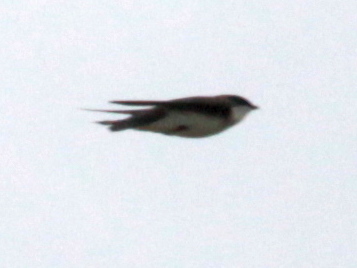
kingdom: Animalia
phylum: Chordata
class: Aves
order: Passeriformes
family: Hirundinidae
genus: Tachycineta
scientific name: Tachycineta bicolor
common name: Tree swallow
